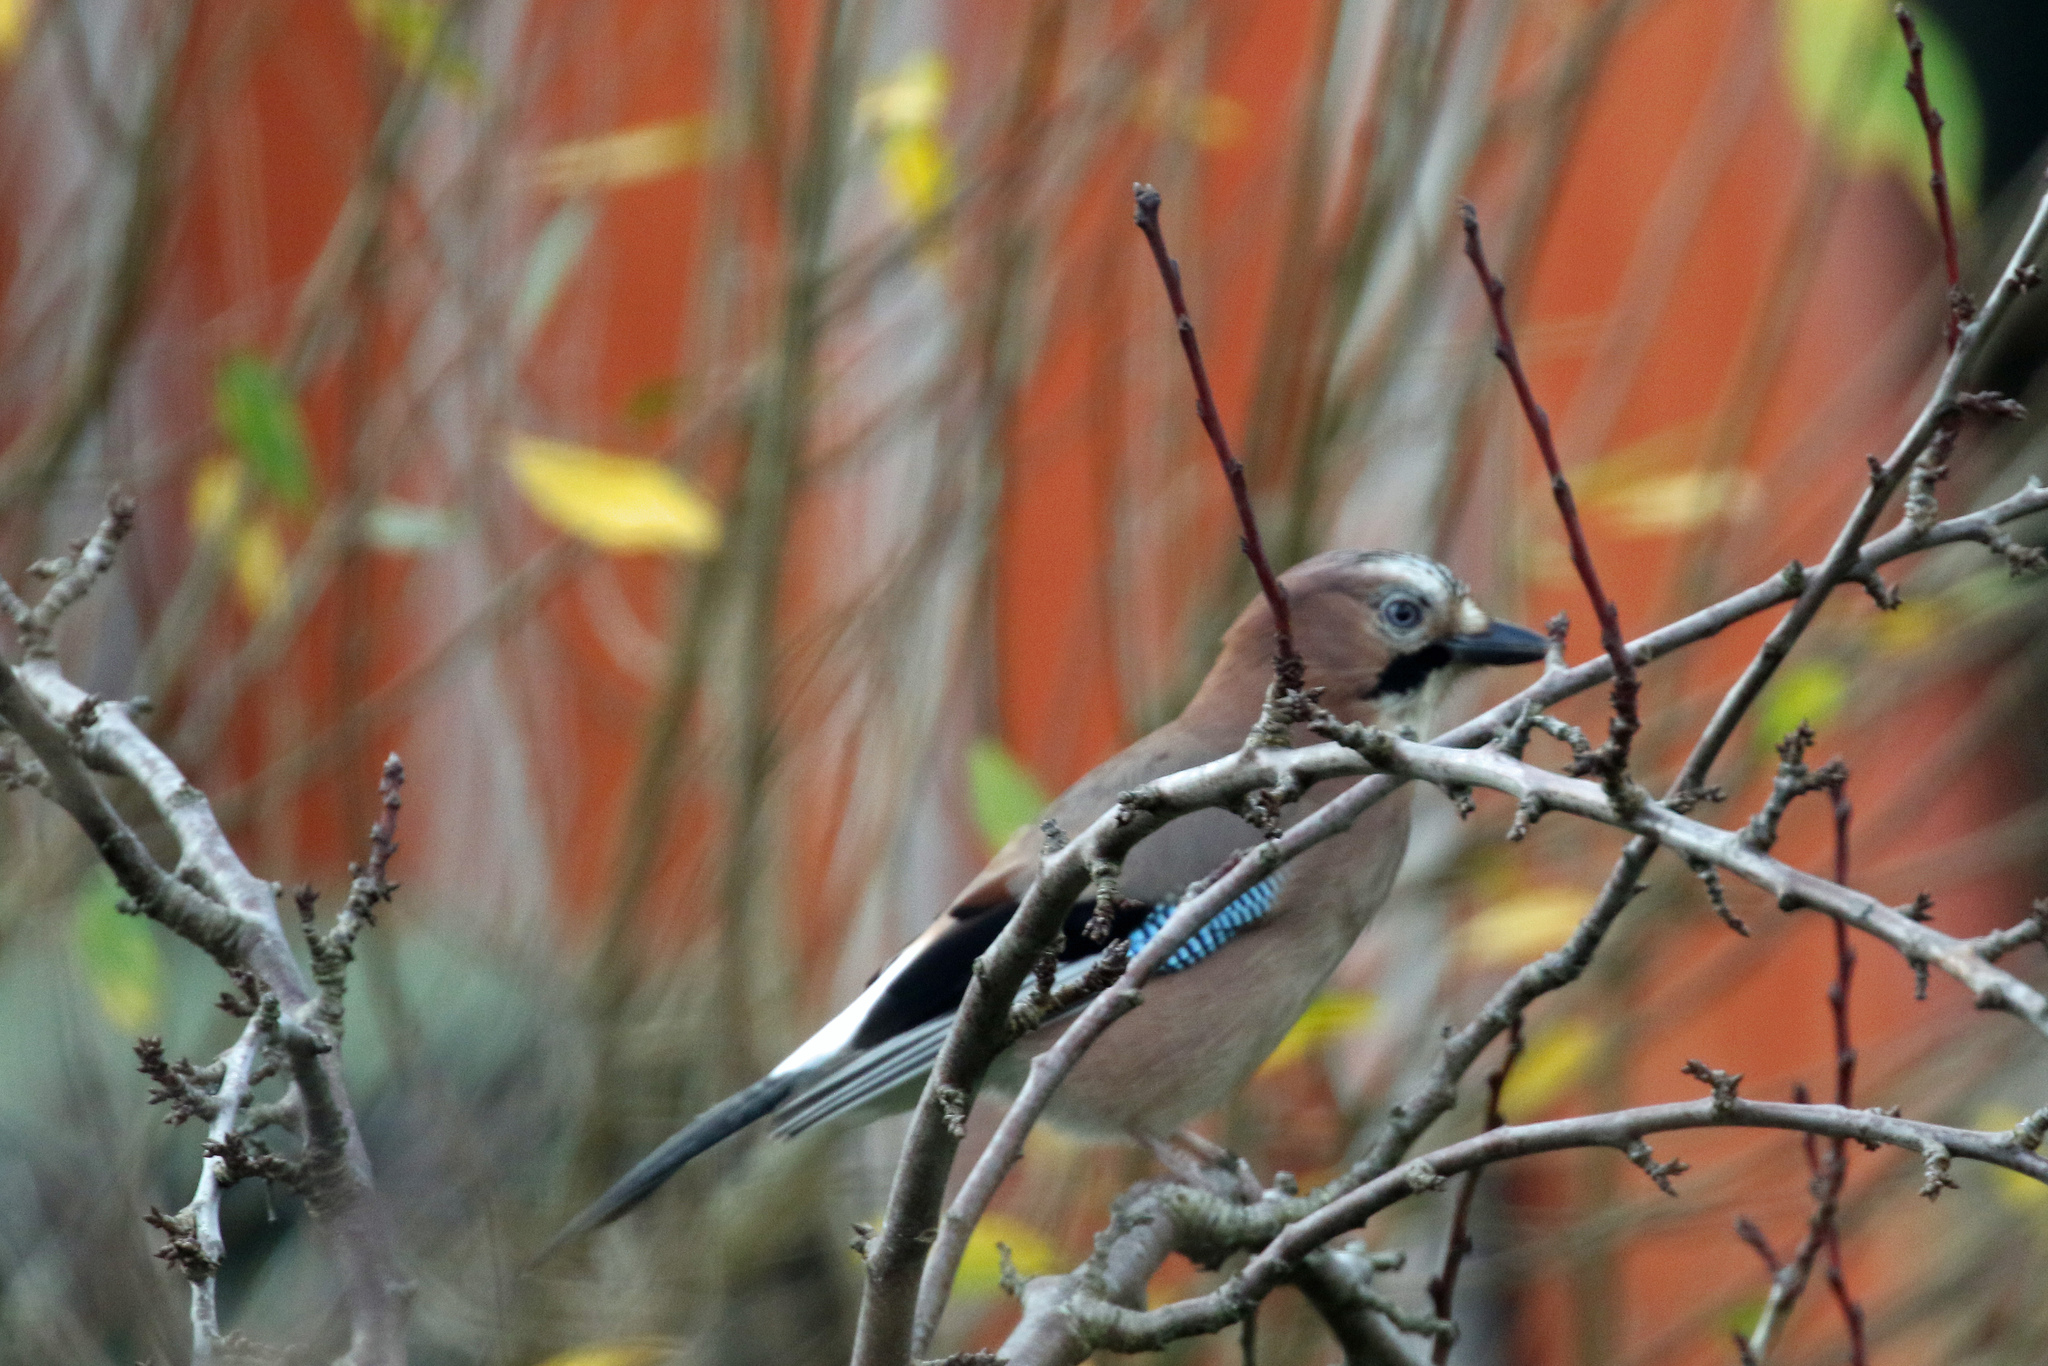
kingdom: Animalia
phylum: Chordata
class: Aves
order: Passeriformes
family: Corvidae
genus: Garrulus
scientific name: Garrulus glandarius
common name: Eurasian jay
